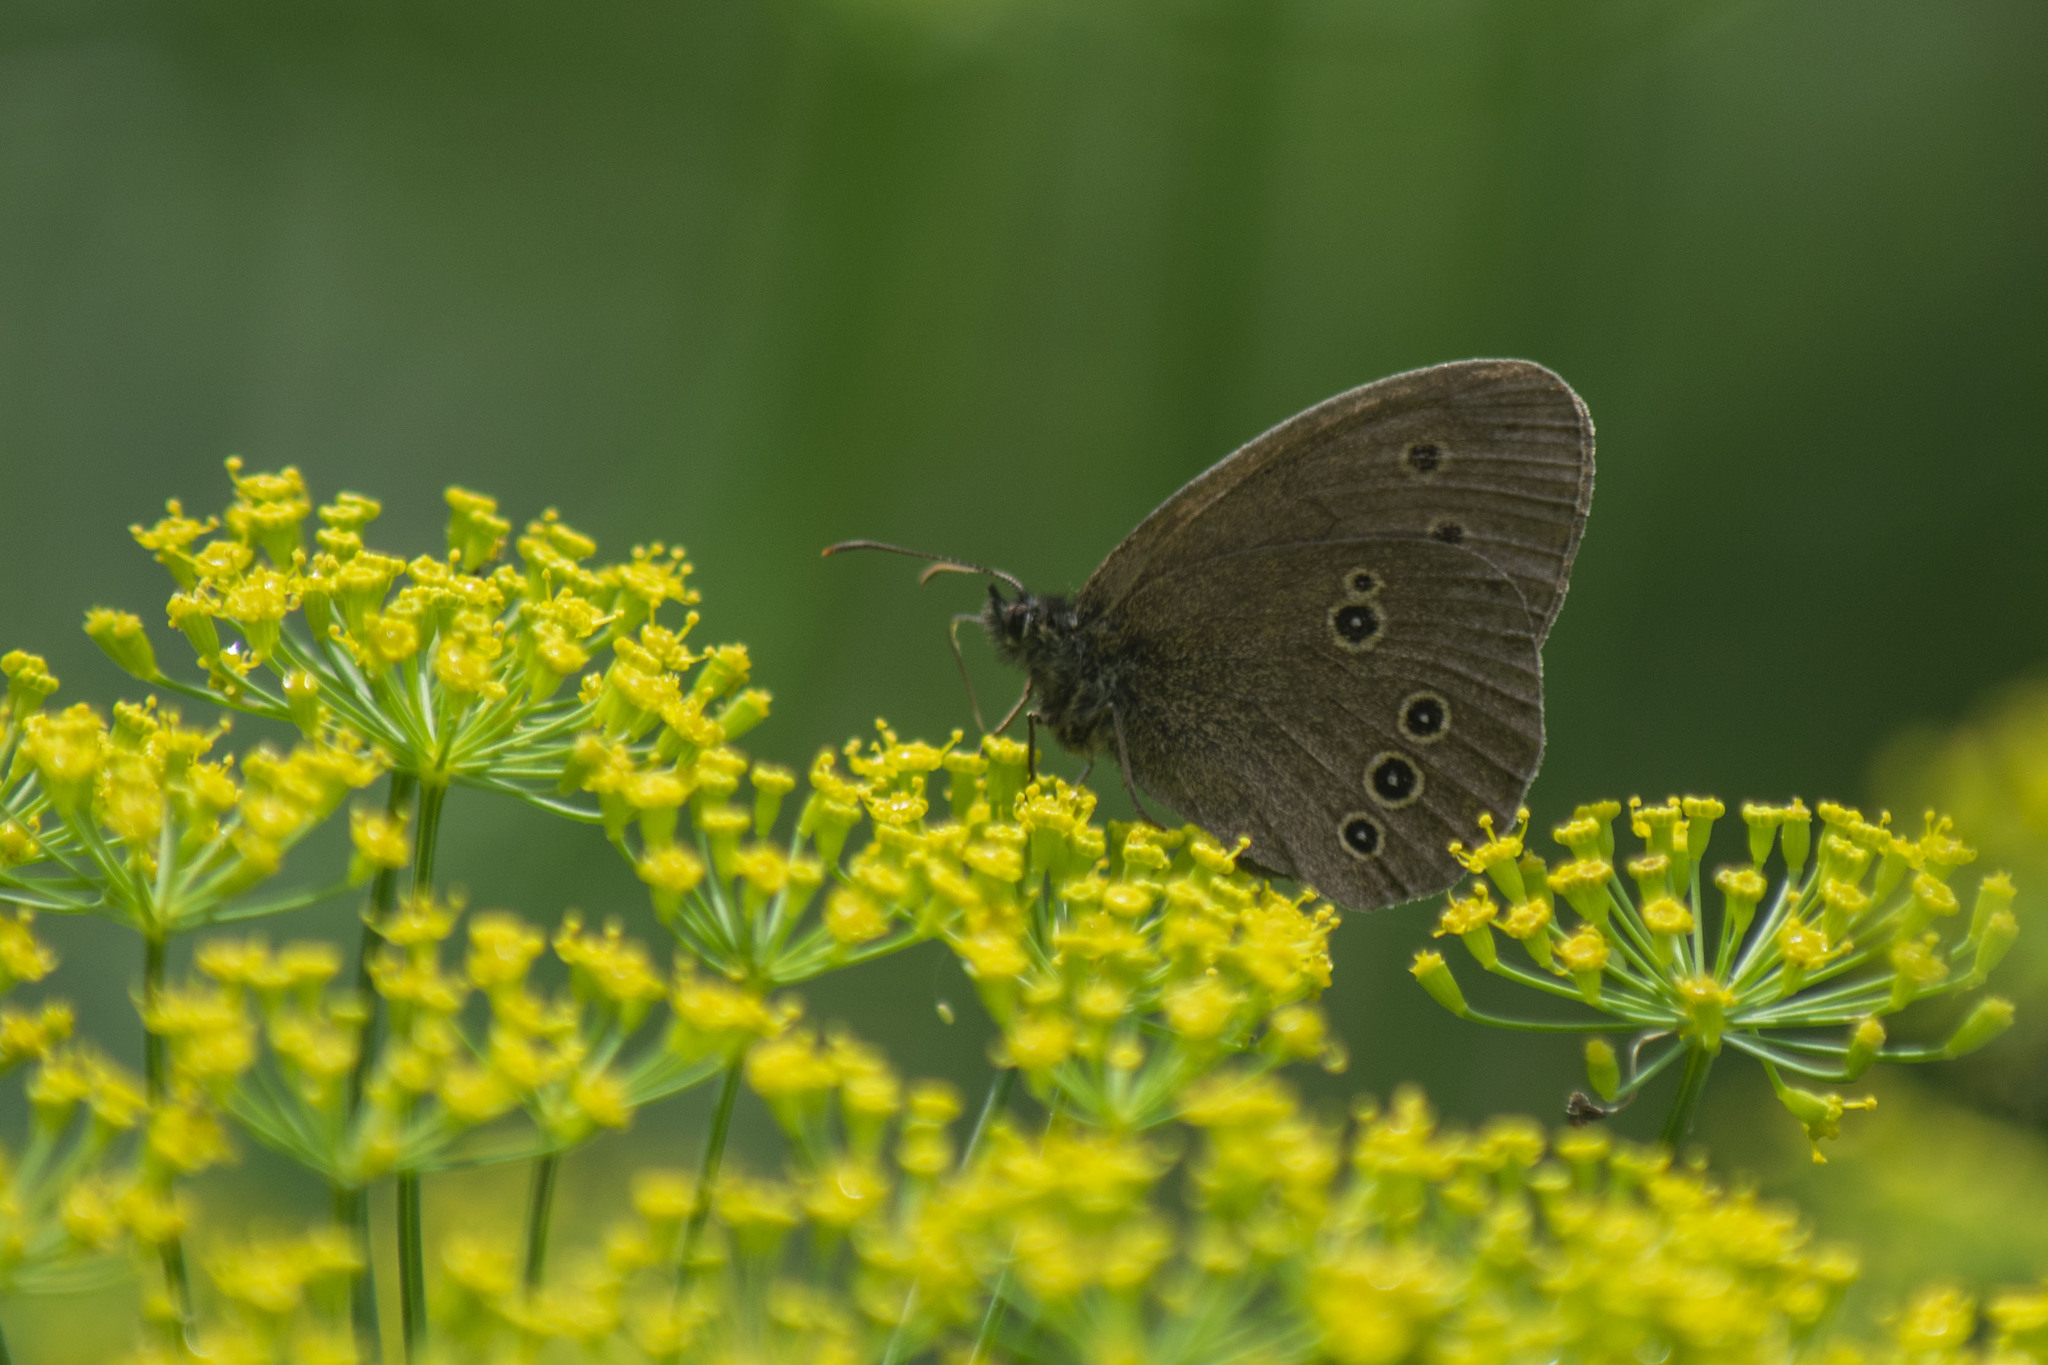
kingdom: Animalia
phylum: Arthropoda
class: Insecta
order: Lepidoptera
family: Nymphalidae
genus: Aphantopus
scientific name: Aphantopus hyperantus
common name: Ringlet
